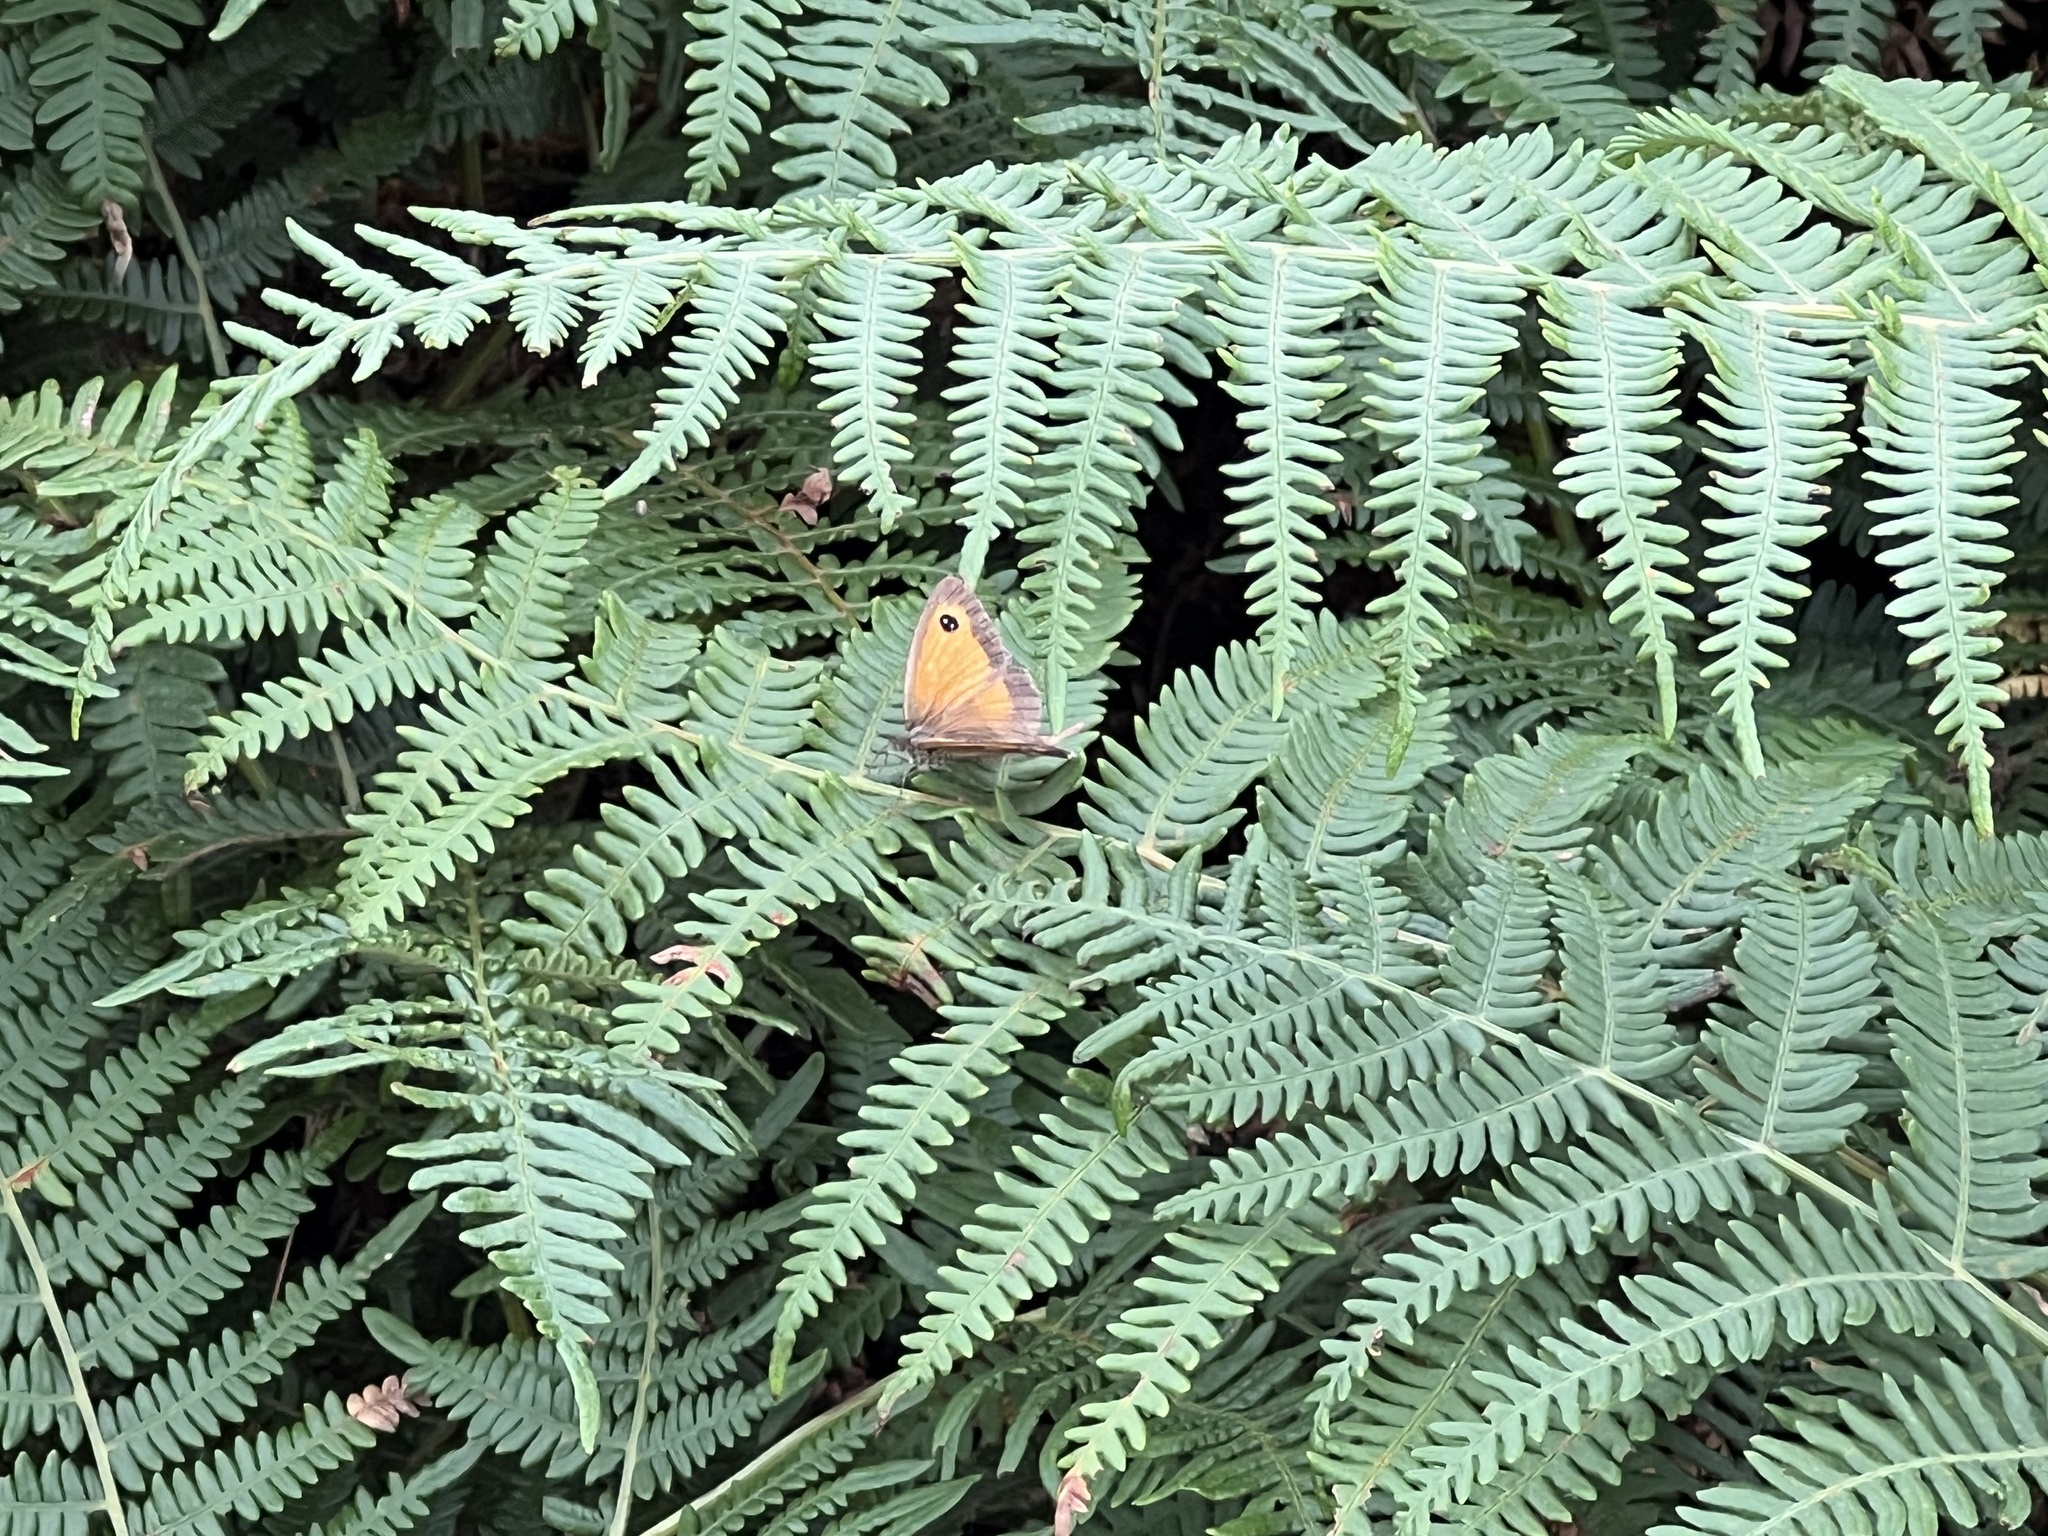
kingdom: Animalia
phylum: Arthropoda
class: Insecta
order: Lepidoptera
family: Nymphalidae
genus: Pyronia
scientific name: Pyronia tithonus
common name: Gatekeeper
